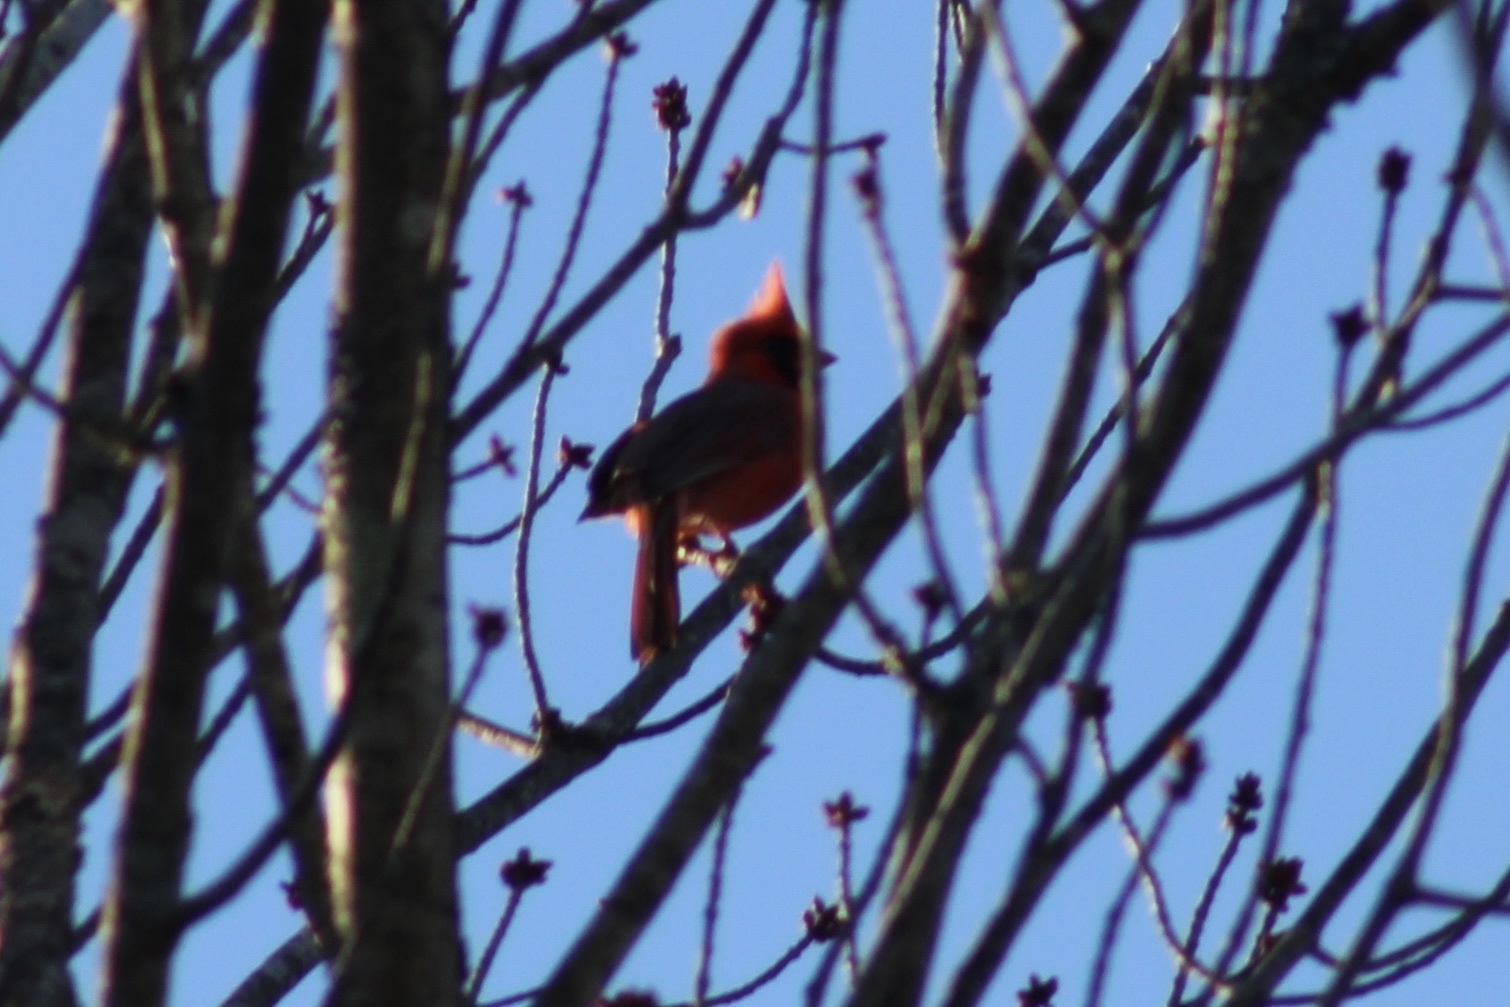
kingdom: Animalia
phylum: Chordata
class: Aves
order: Passeriformes
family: Cardinalidae
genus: Cardinalis
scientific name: Cardinalis cardinalis
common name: Northern cardinal
